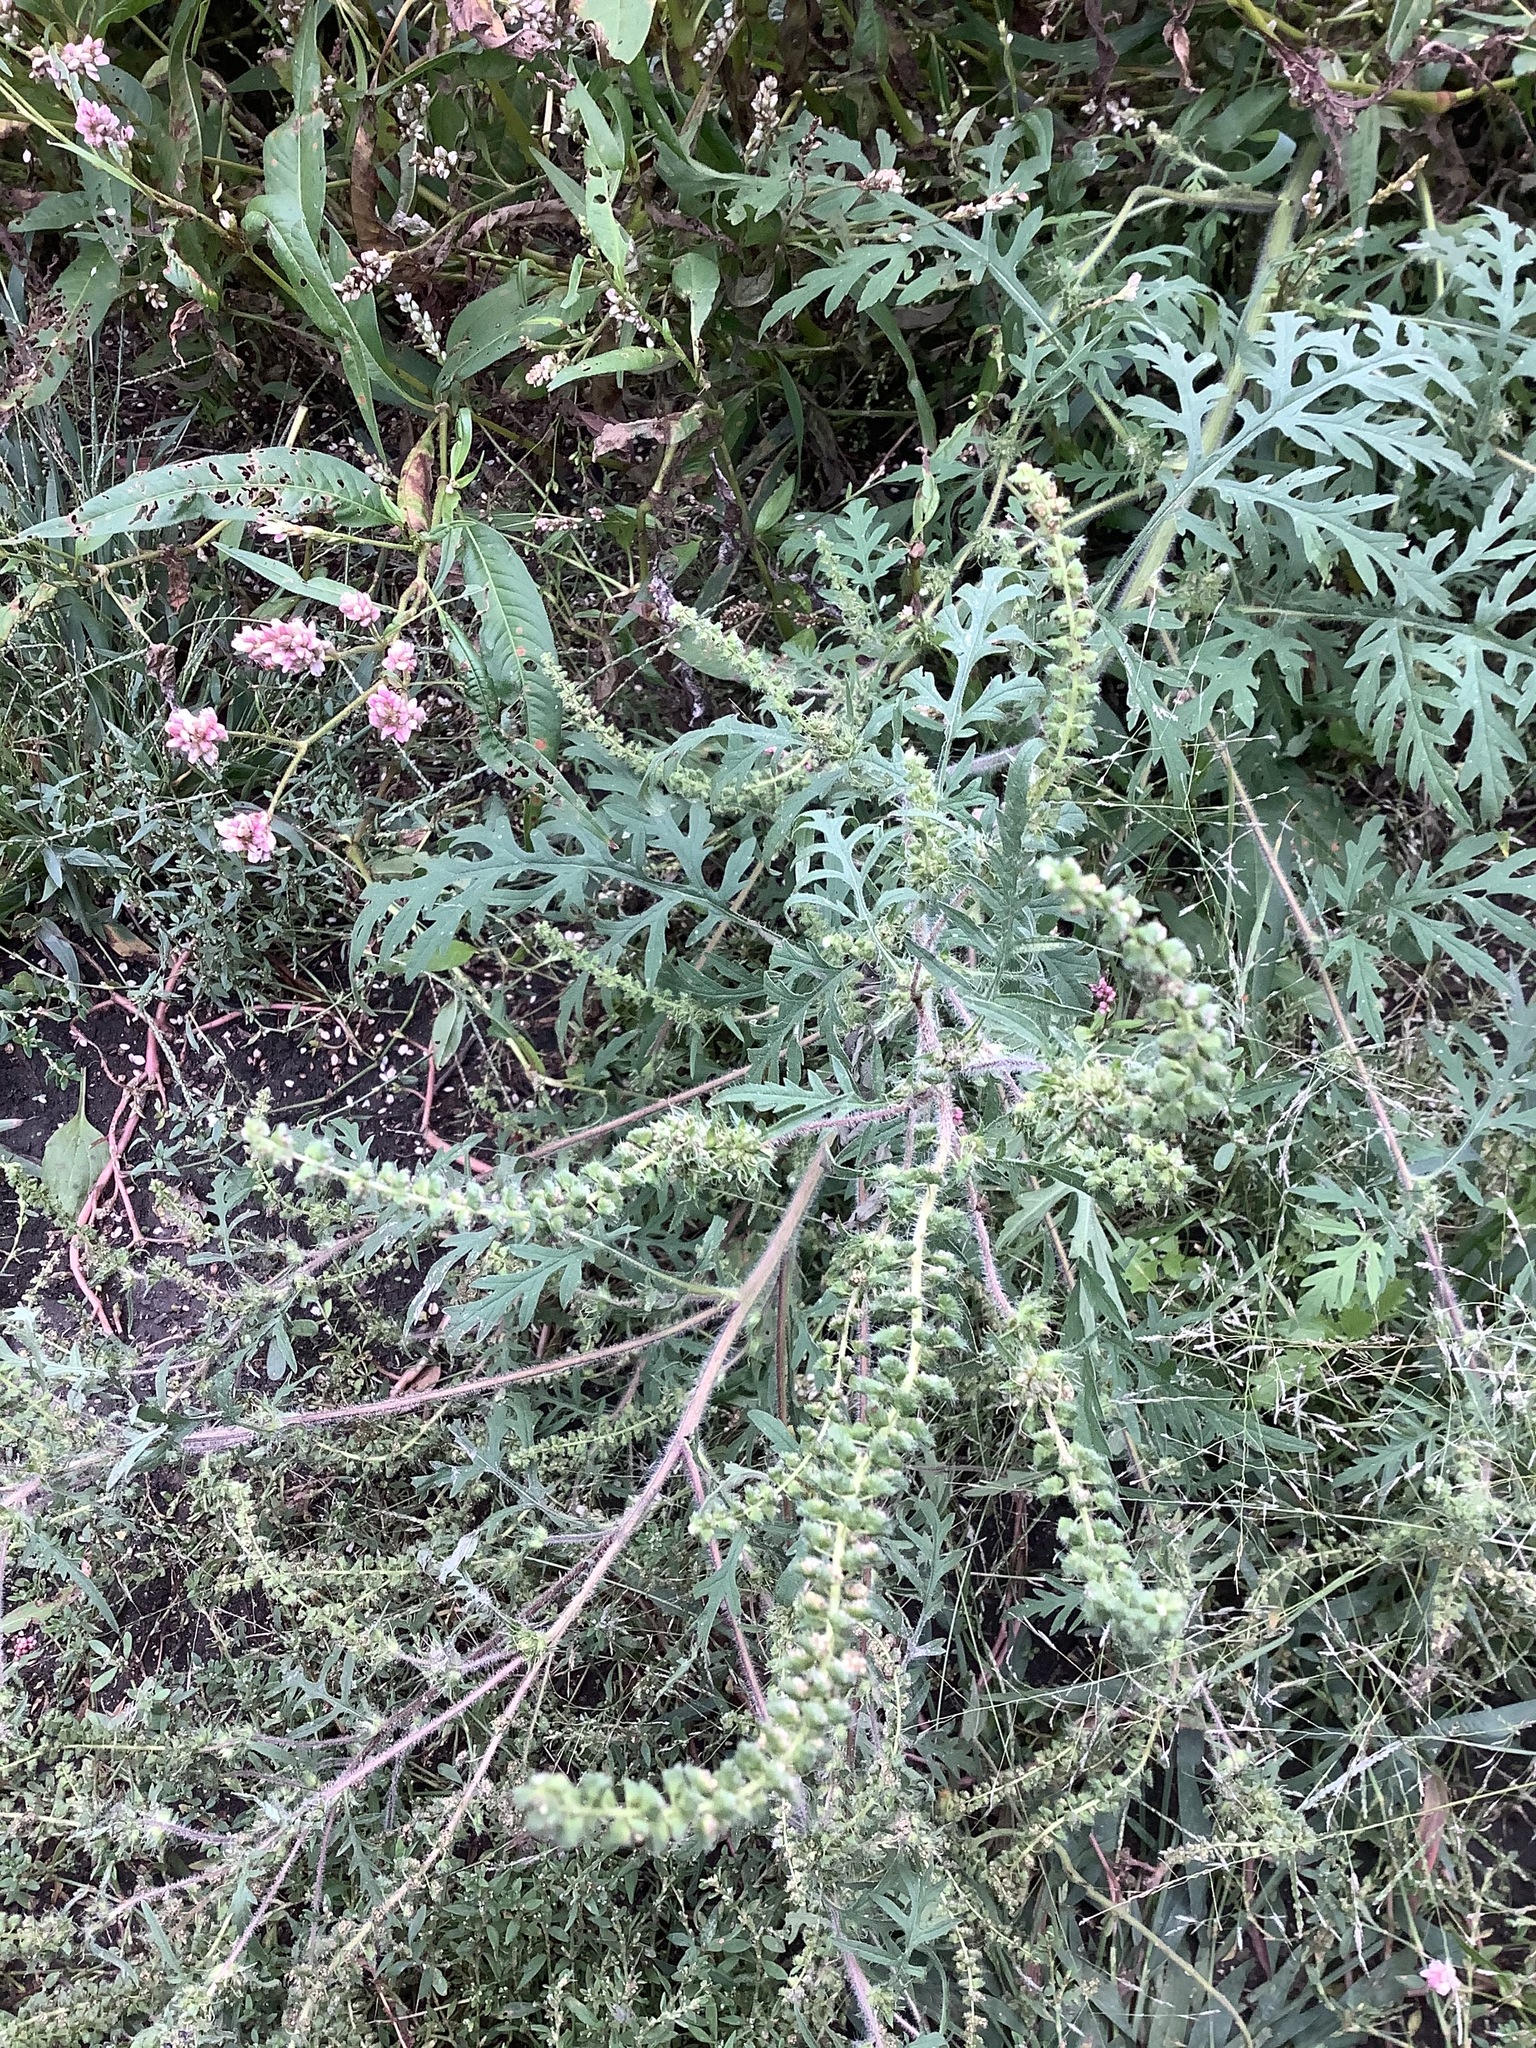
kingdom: Plantae
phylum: Tracheophyta
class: Magnoliopsida
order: Asterales
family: Asteraceae
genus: Ambrosia
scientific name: Ambrosia artemisiifolia
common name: Annual ragweed
